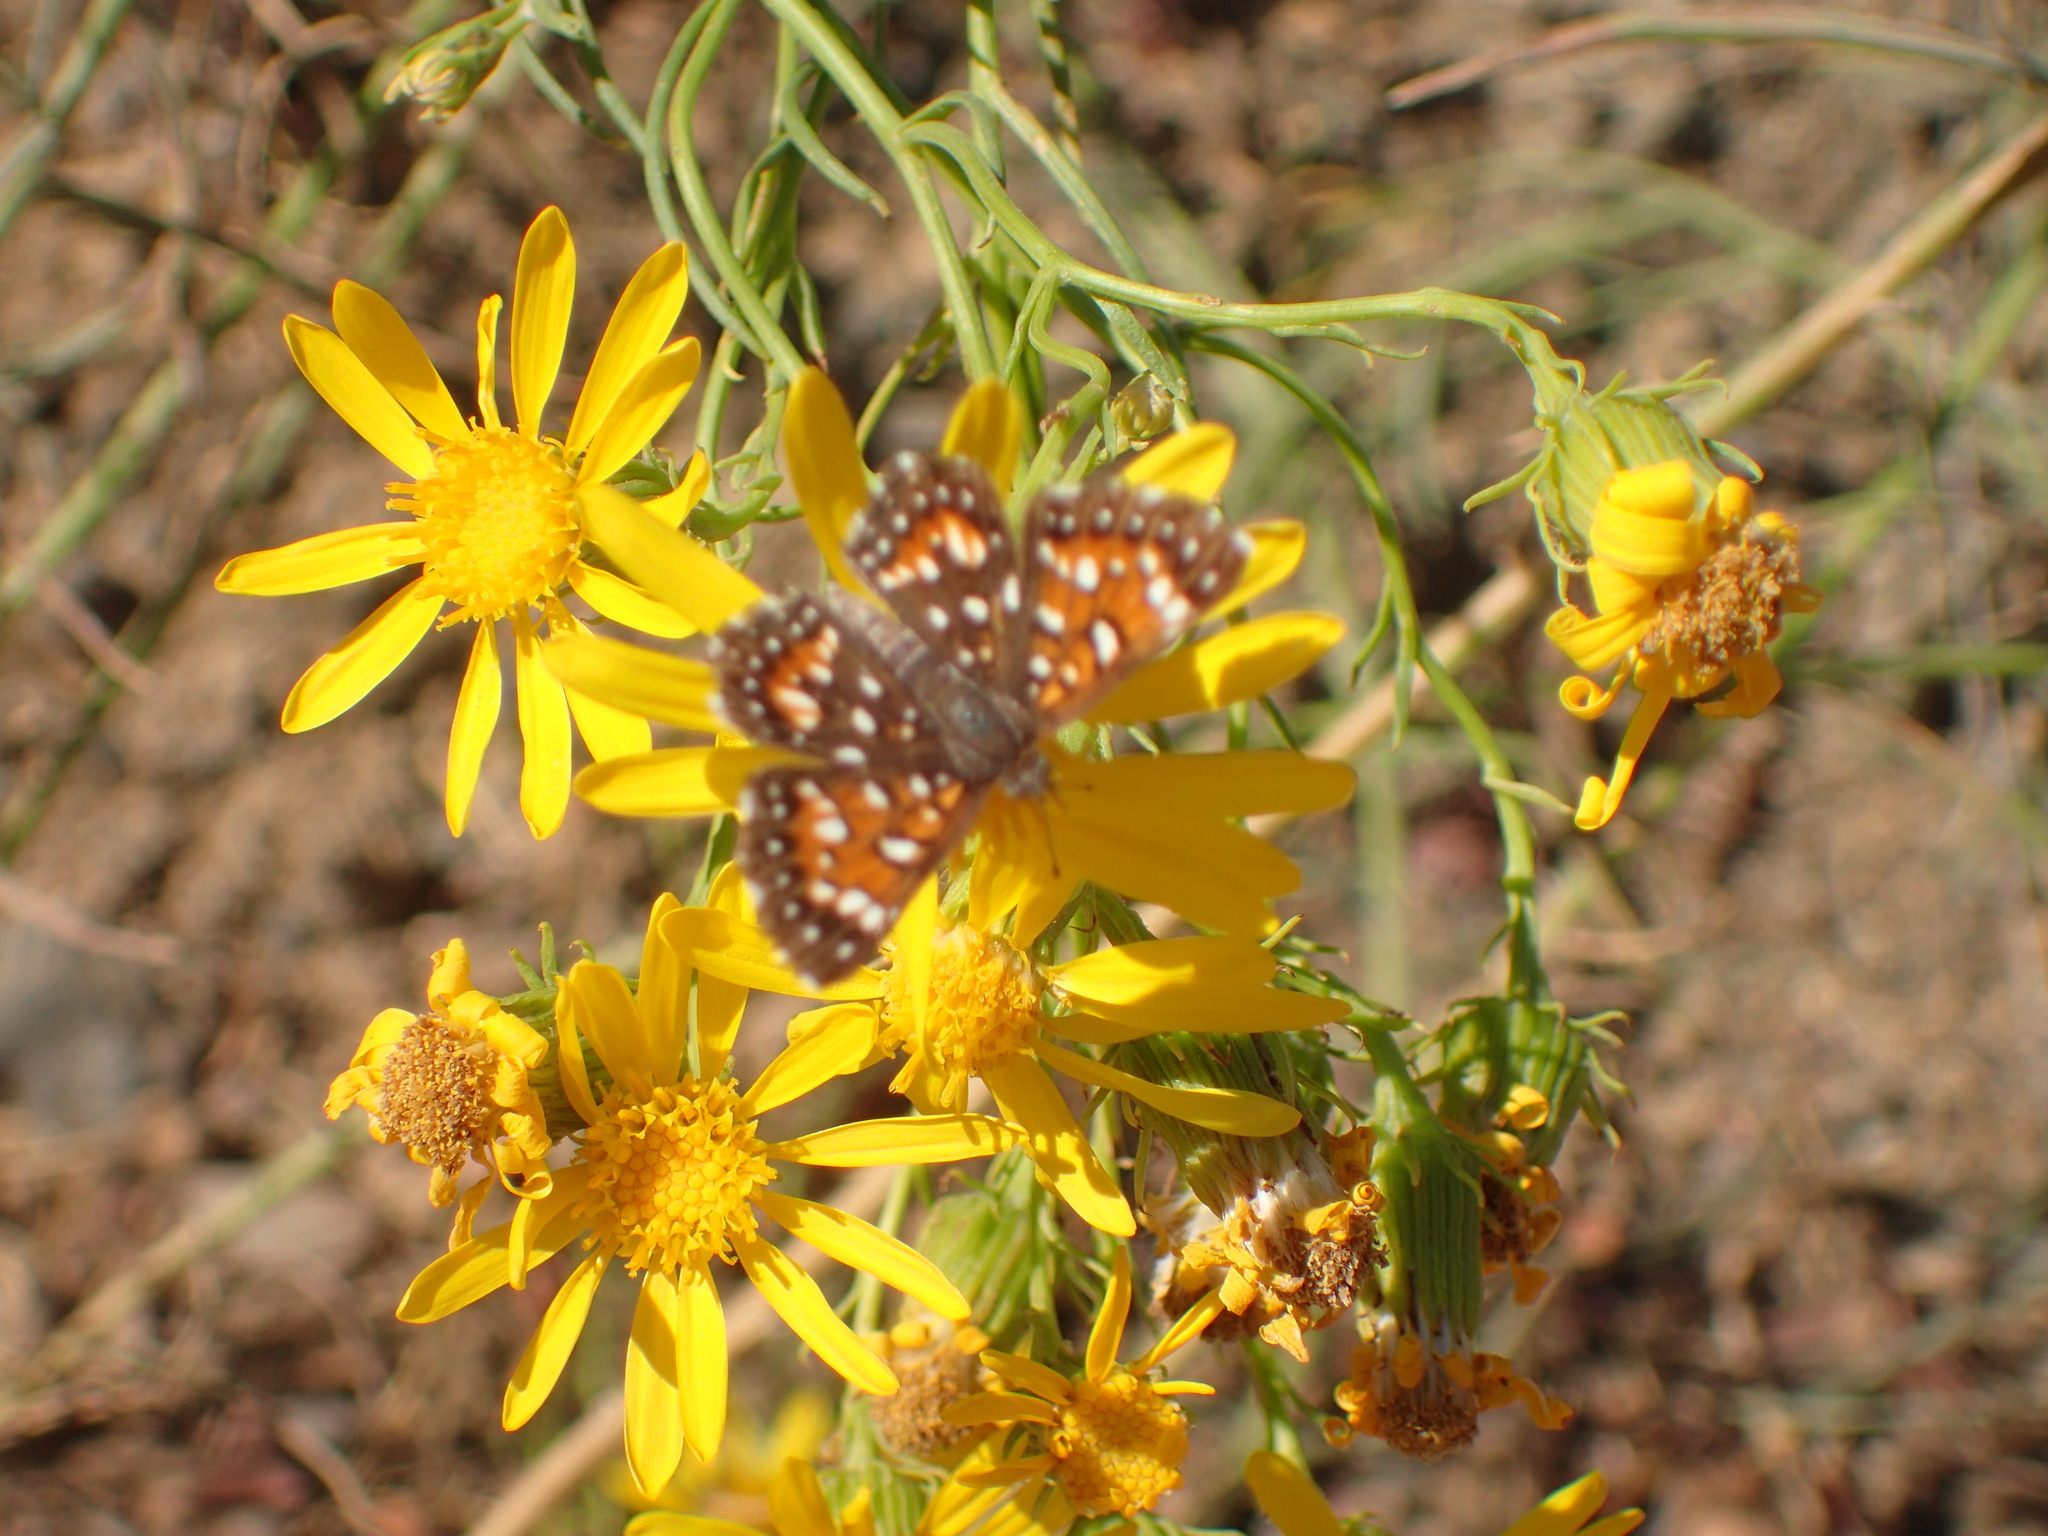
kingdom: Animalia
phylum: Arthropoda
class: Insecta
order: Lepidoptera
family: Riodinidae
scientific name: Riodinidae
